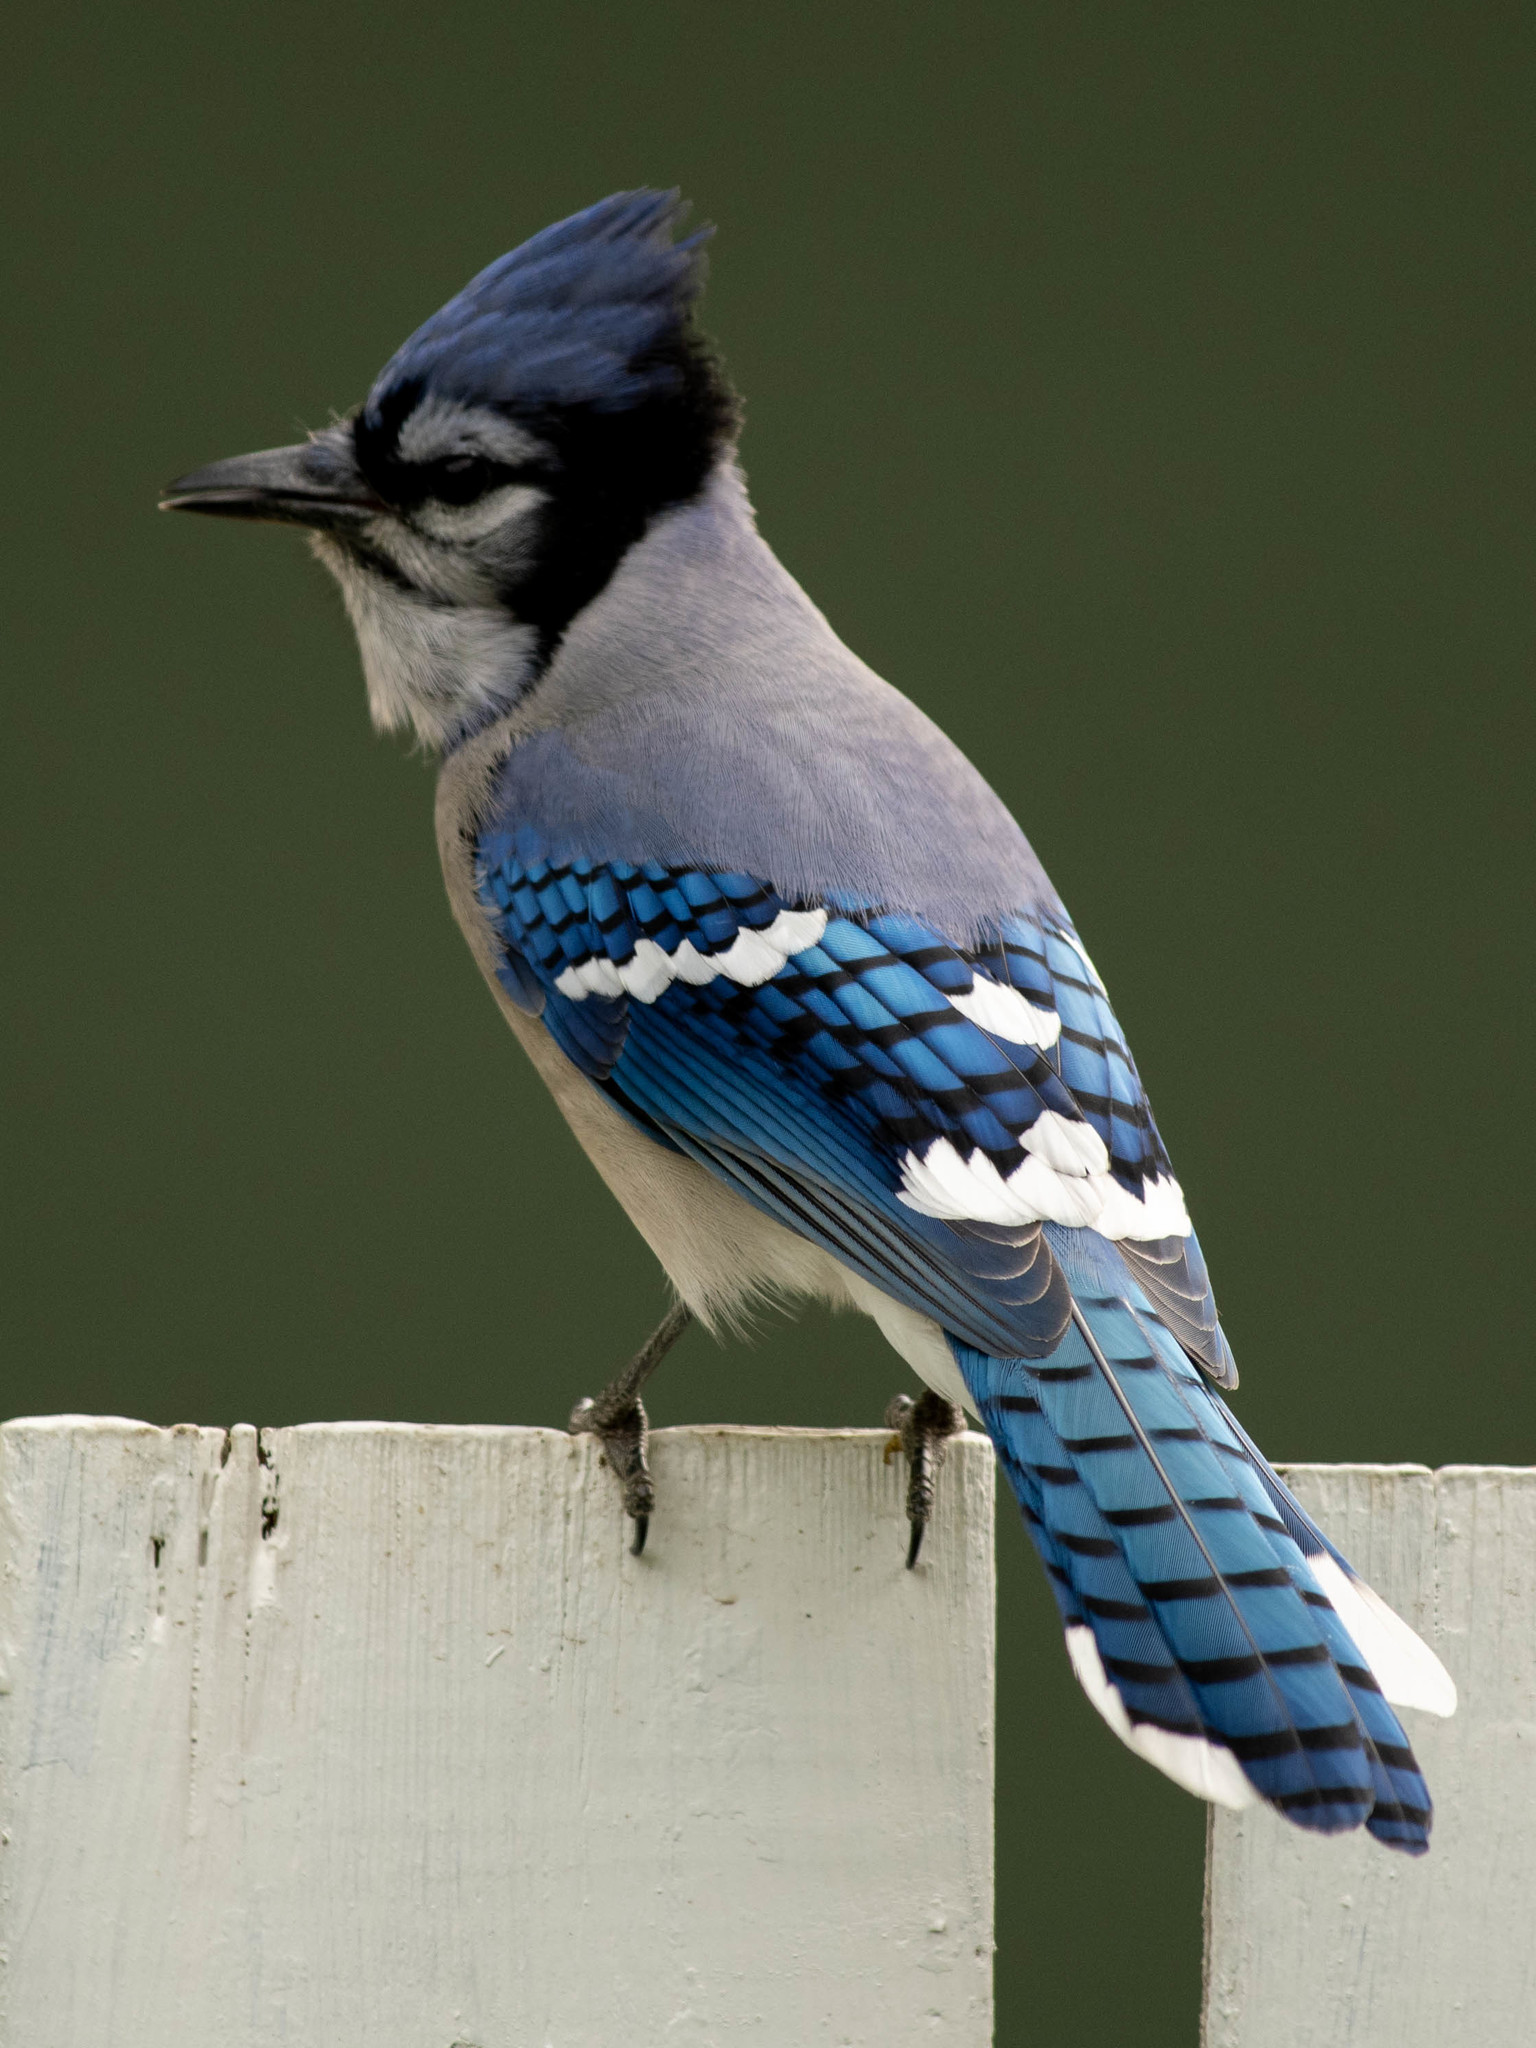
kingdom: Animalia
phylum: Chordata
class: Aves
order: Passeriformes
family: Corvidae
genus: Cyanocitta
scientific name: Cyanocitta cristata
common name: Blue jay
